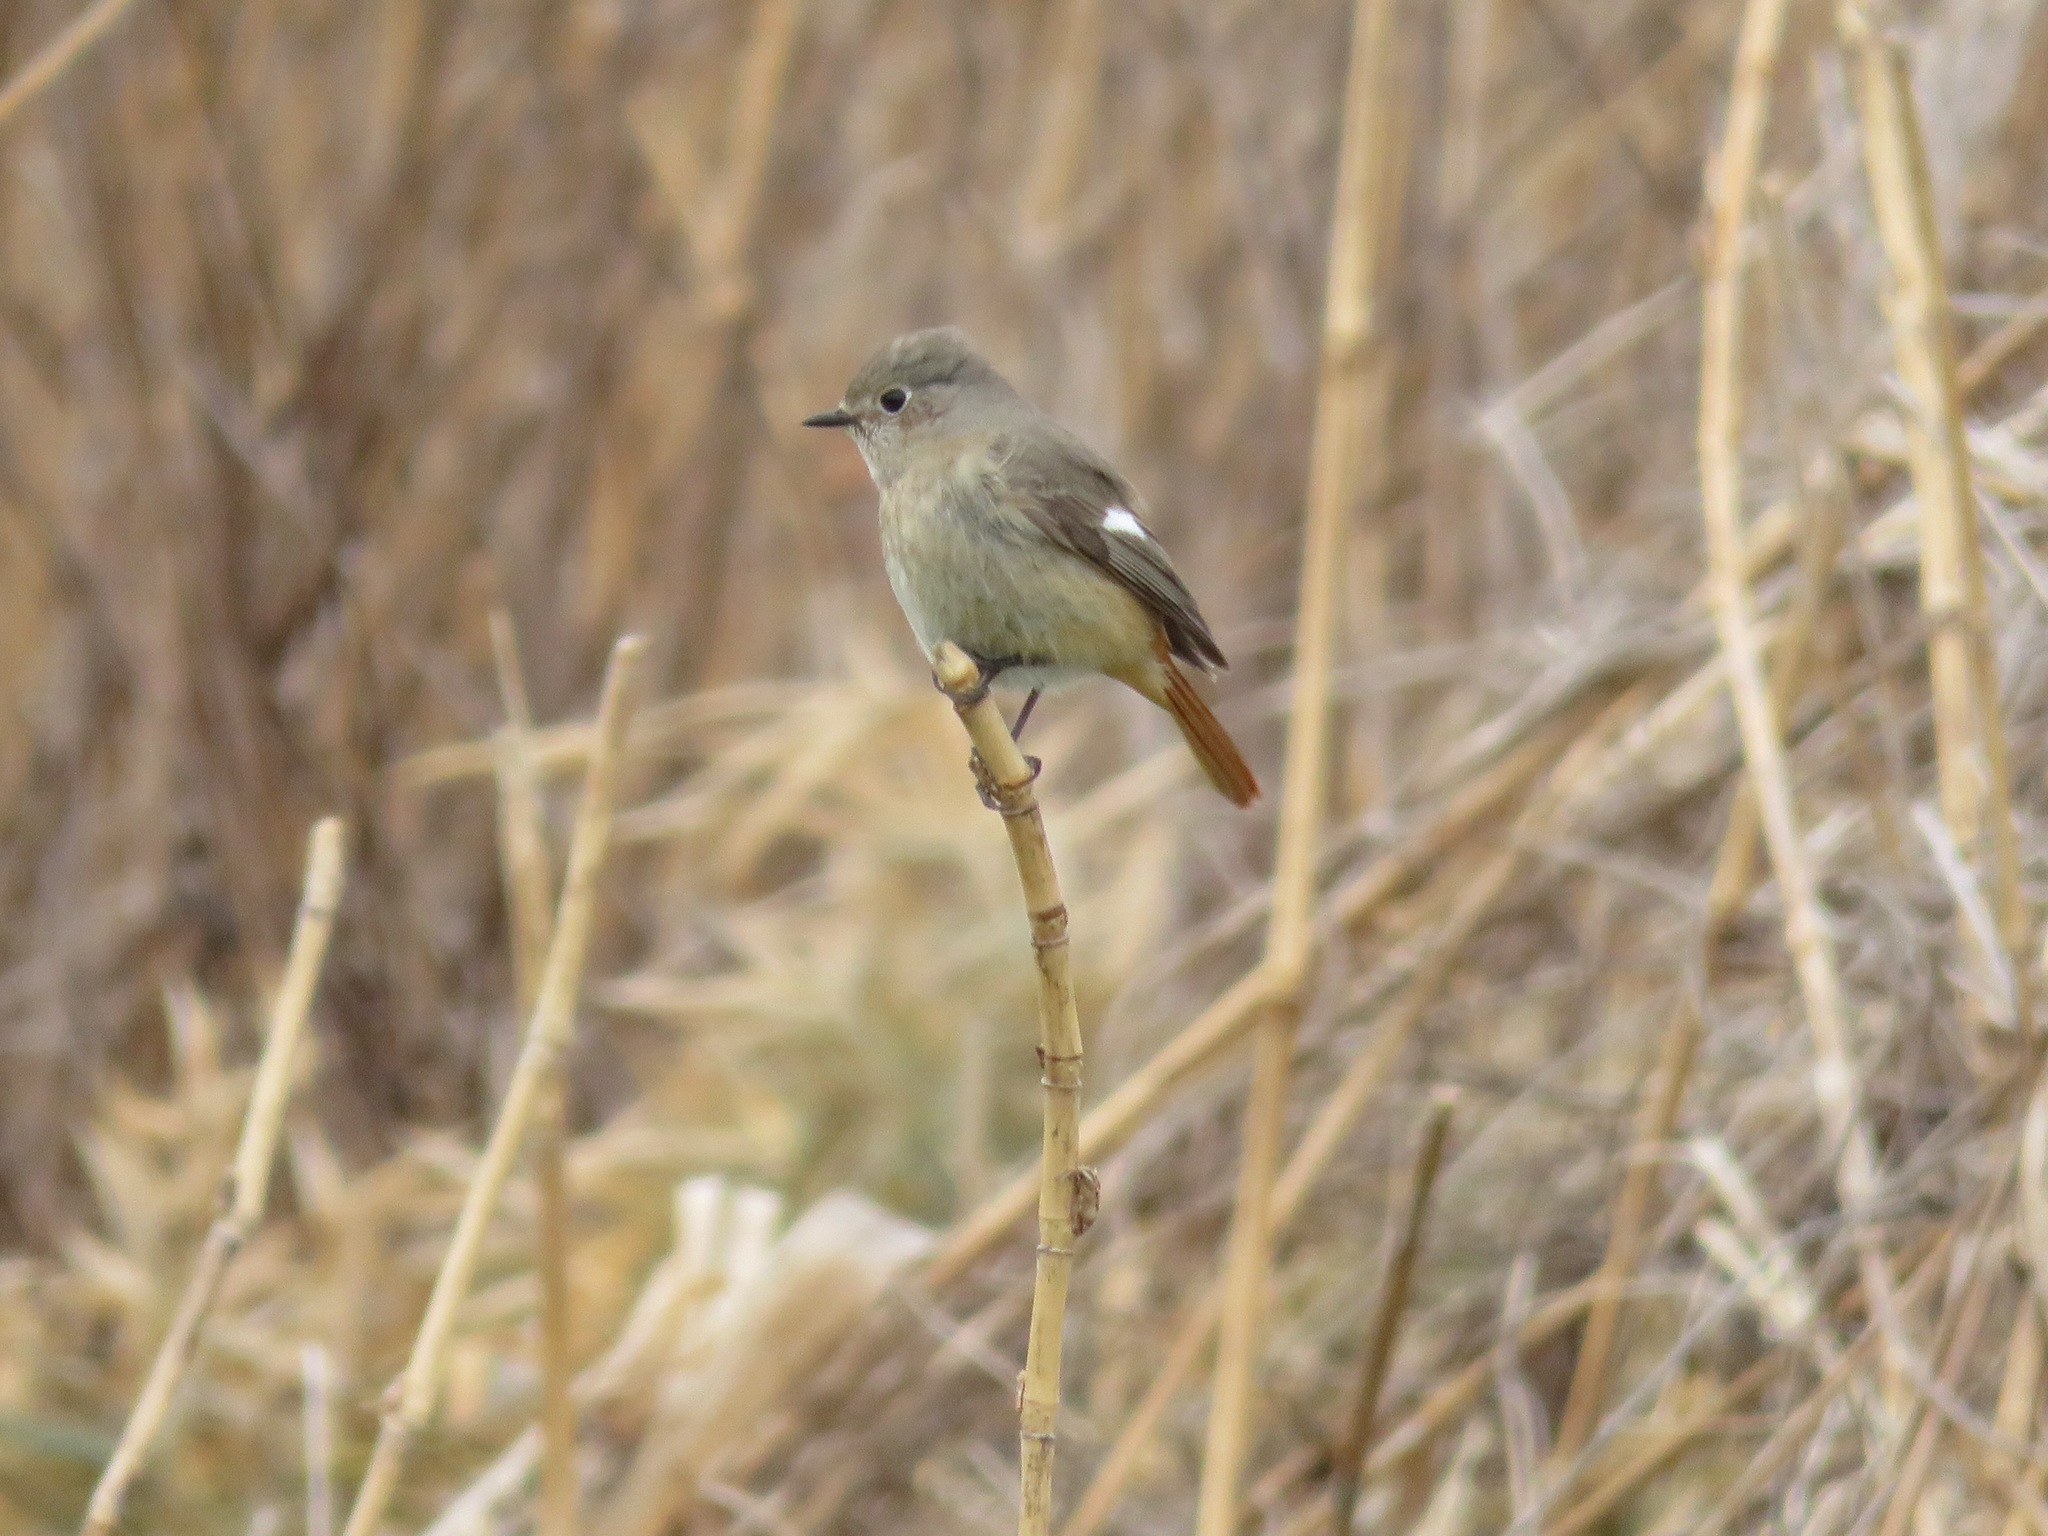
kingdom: Animalia
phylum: Chordata
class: Aves
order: Passeriformes
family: Muscicapidae
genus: Phoenicurus
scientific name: Phoenicurus auroreus
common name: Daurian redstart
